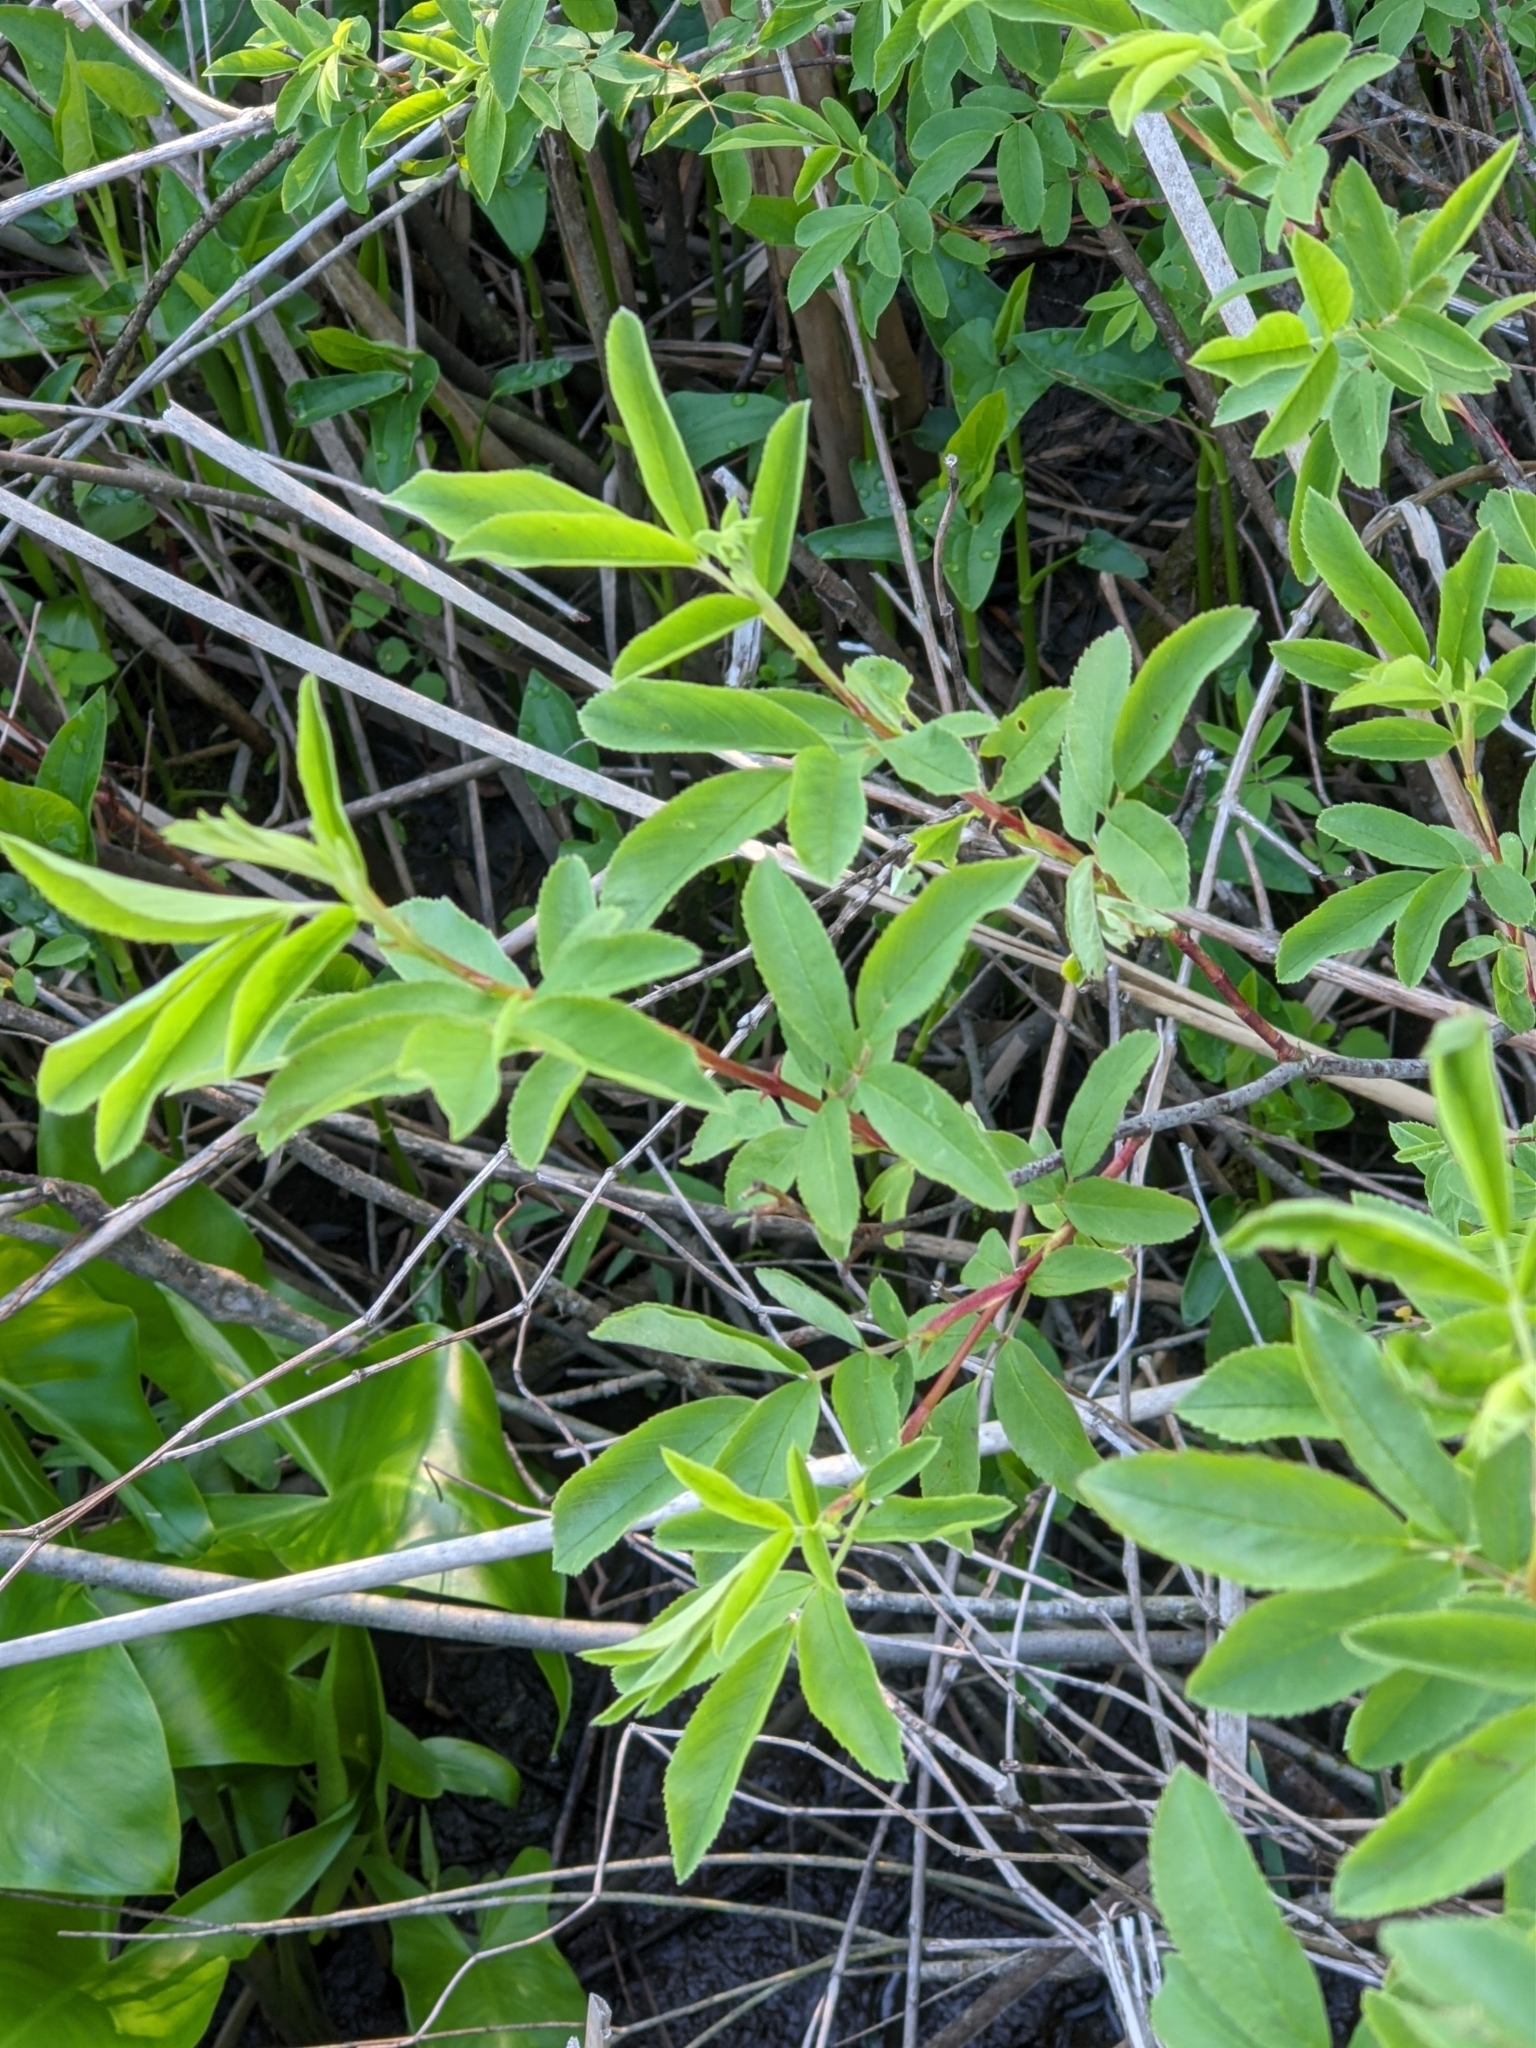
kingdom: Plantae
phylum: Tracheophyta
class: Magnoliopsida
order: Rosales
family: Rosaceae
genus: Rosa
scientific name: Rosa palustris
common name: Swamp rose
